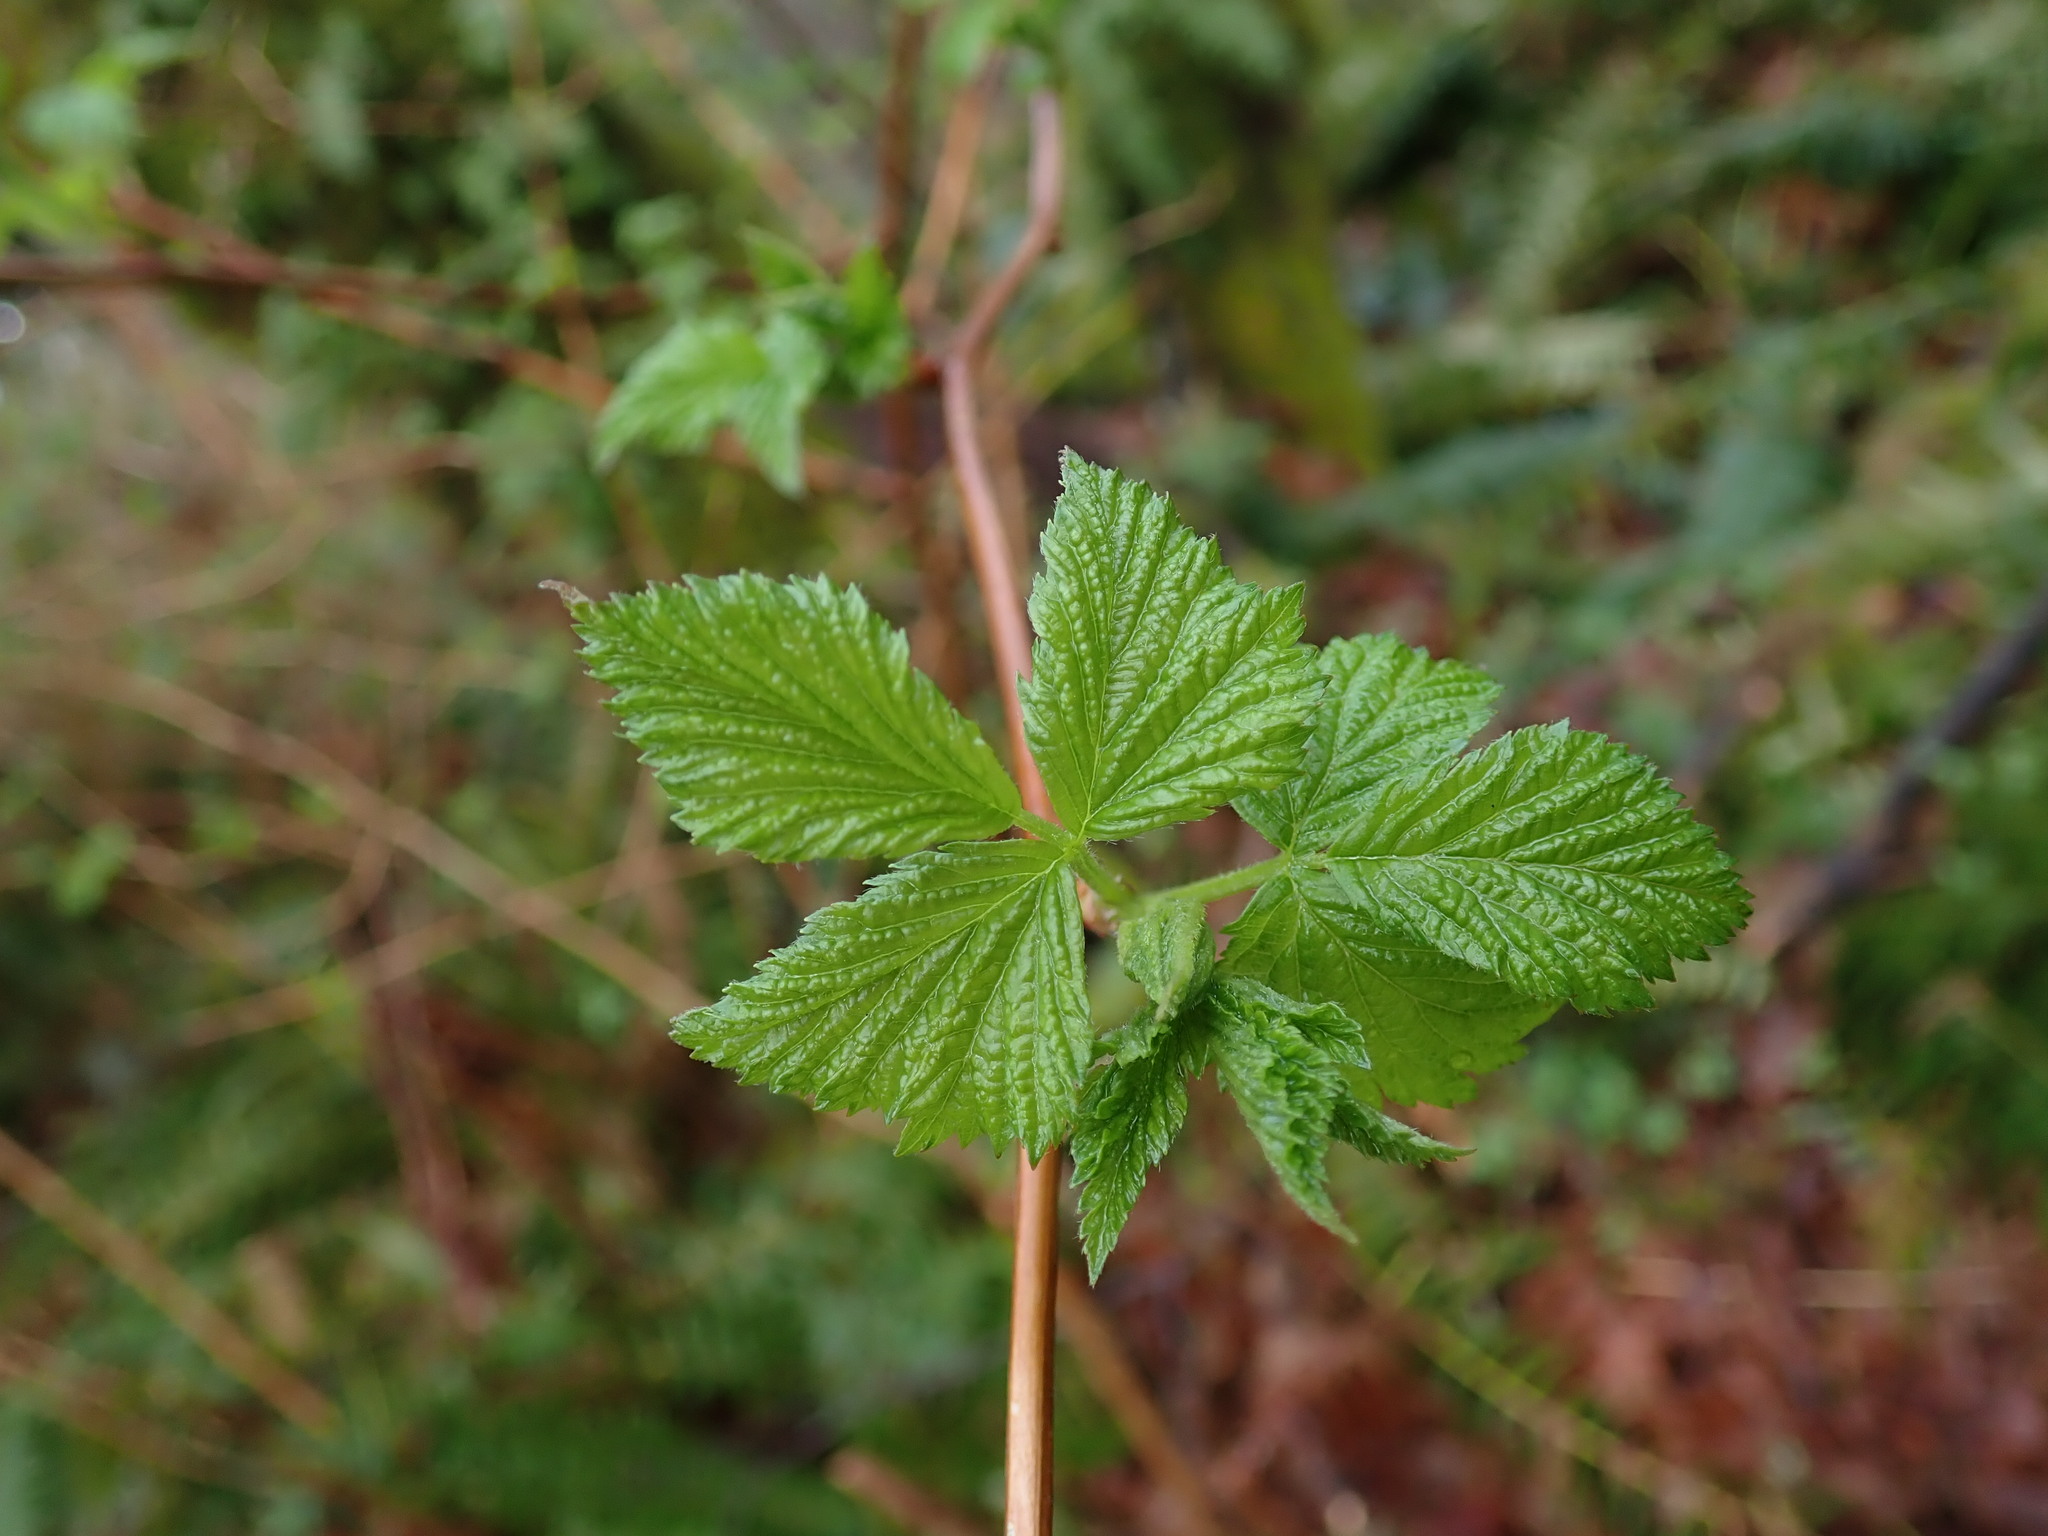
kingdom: Plantae
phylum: Tracheophyta
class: Magnoliopsida
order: Rosales
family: Rosaceae
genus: Rubus
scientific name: Rubus spectabilis
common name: Salmonberry
